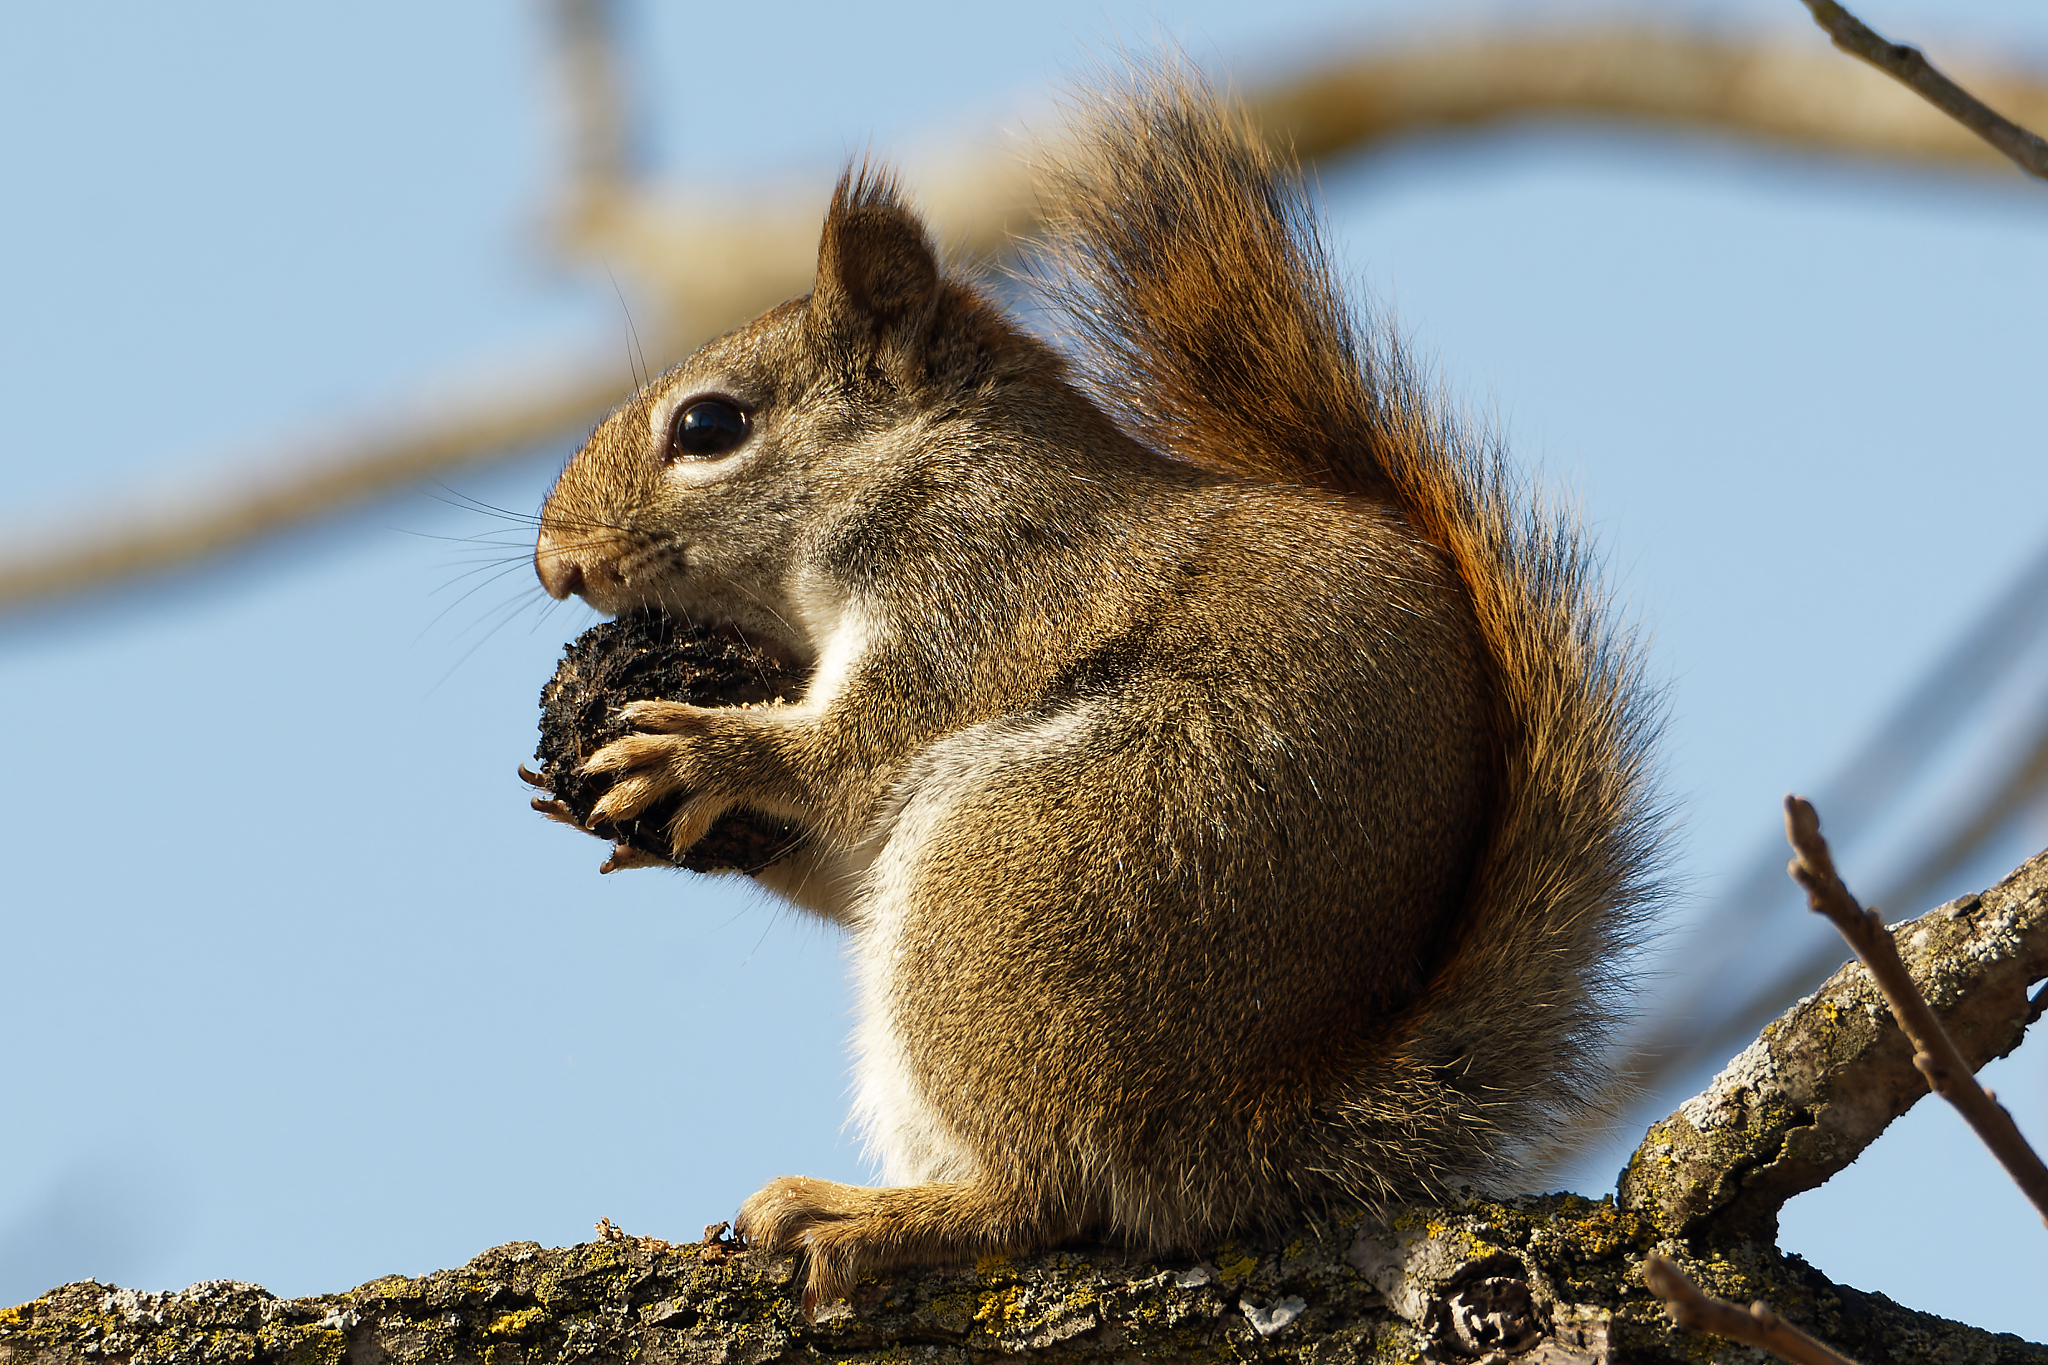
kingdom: Animalia
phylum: Chordata
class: Mammalia
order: Rodentia
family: Sciuridae
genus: Tamiasciurus
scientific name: Tamiasciurus hudsonicus
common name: Red squirrel
